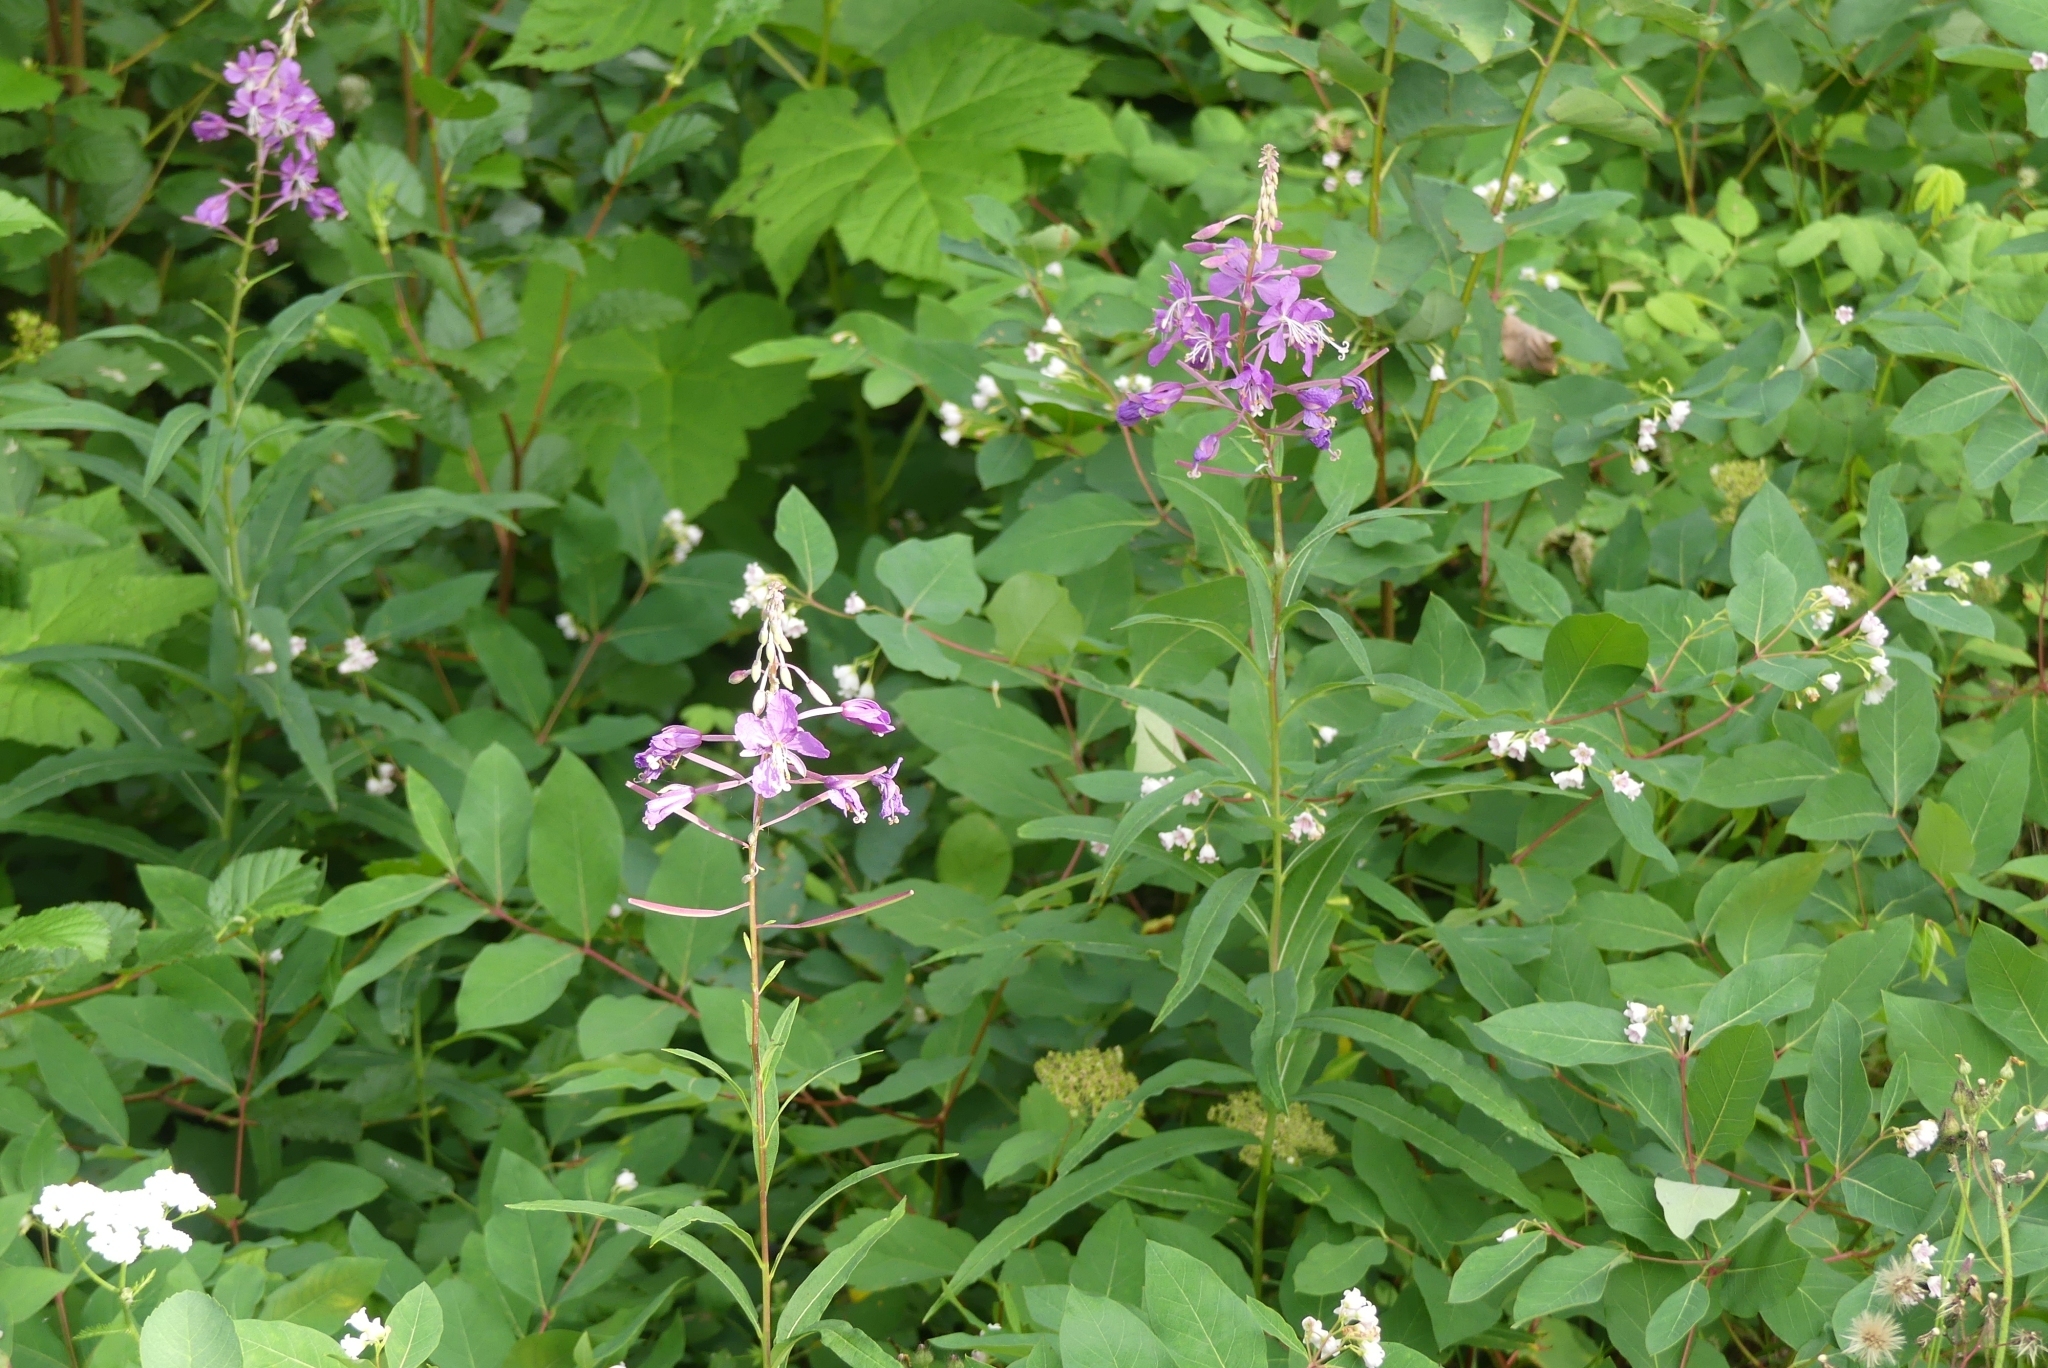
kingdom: Plantae
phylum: Tracheophyta
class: Magnoliopsida
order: Myrtales
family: Onagraceae
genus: Chamaenerion
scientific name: Chamaenerion angustifolium
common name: Fireweed
